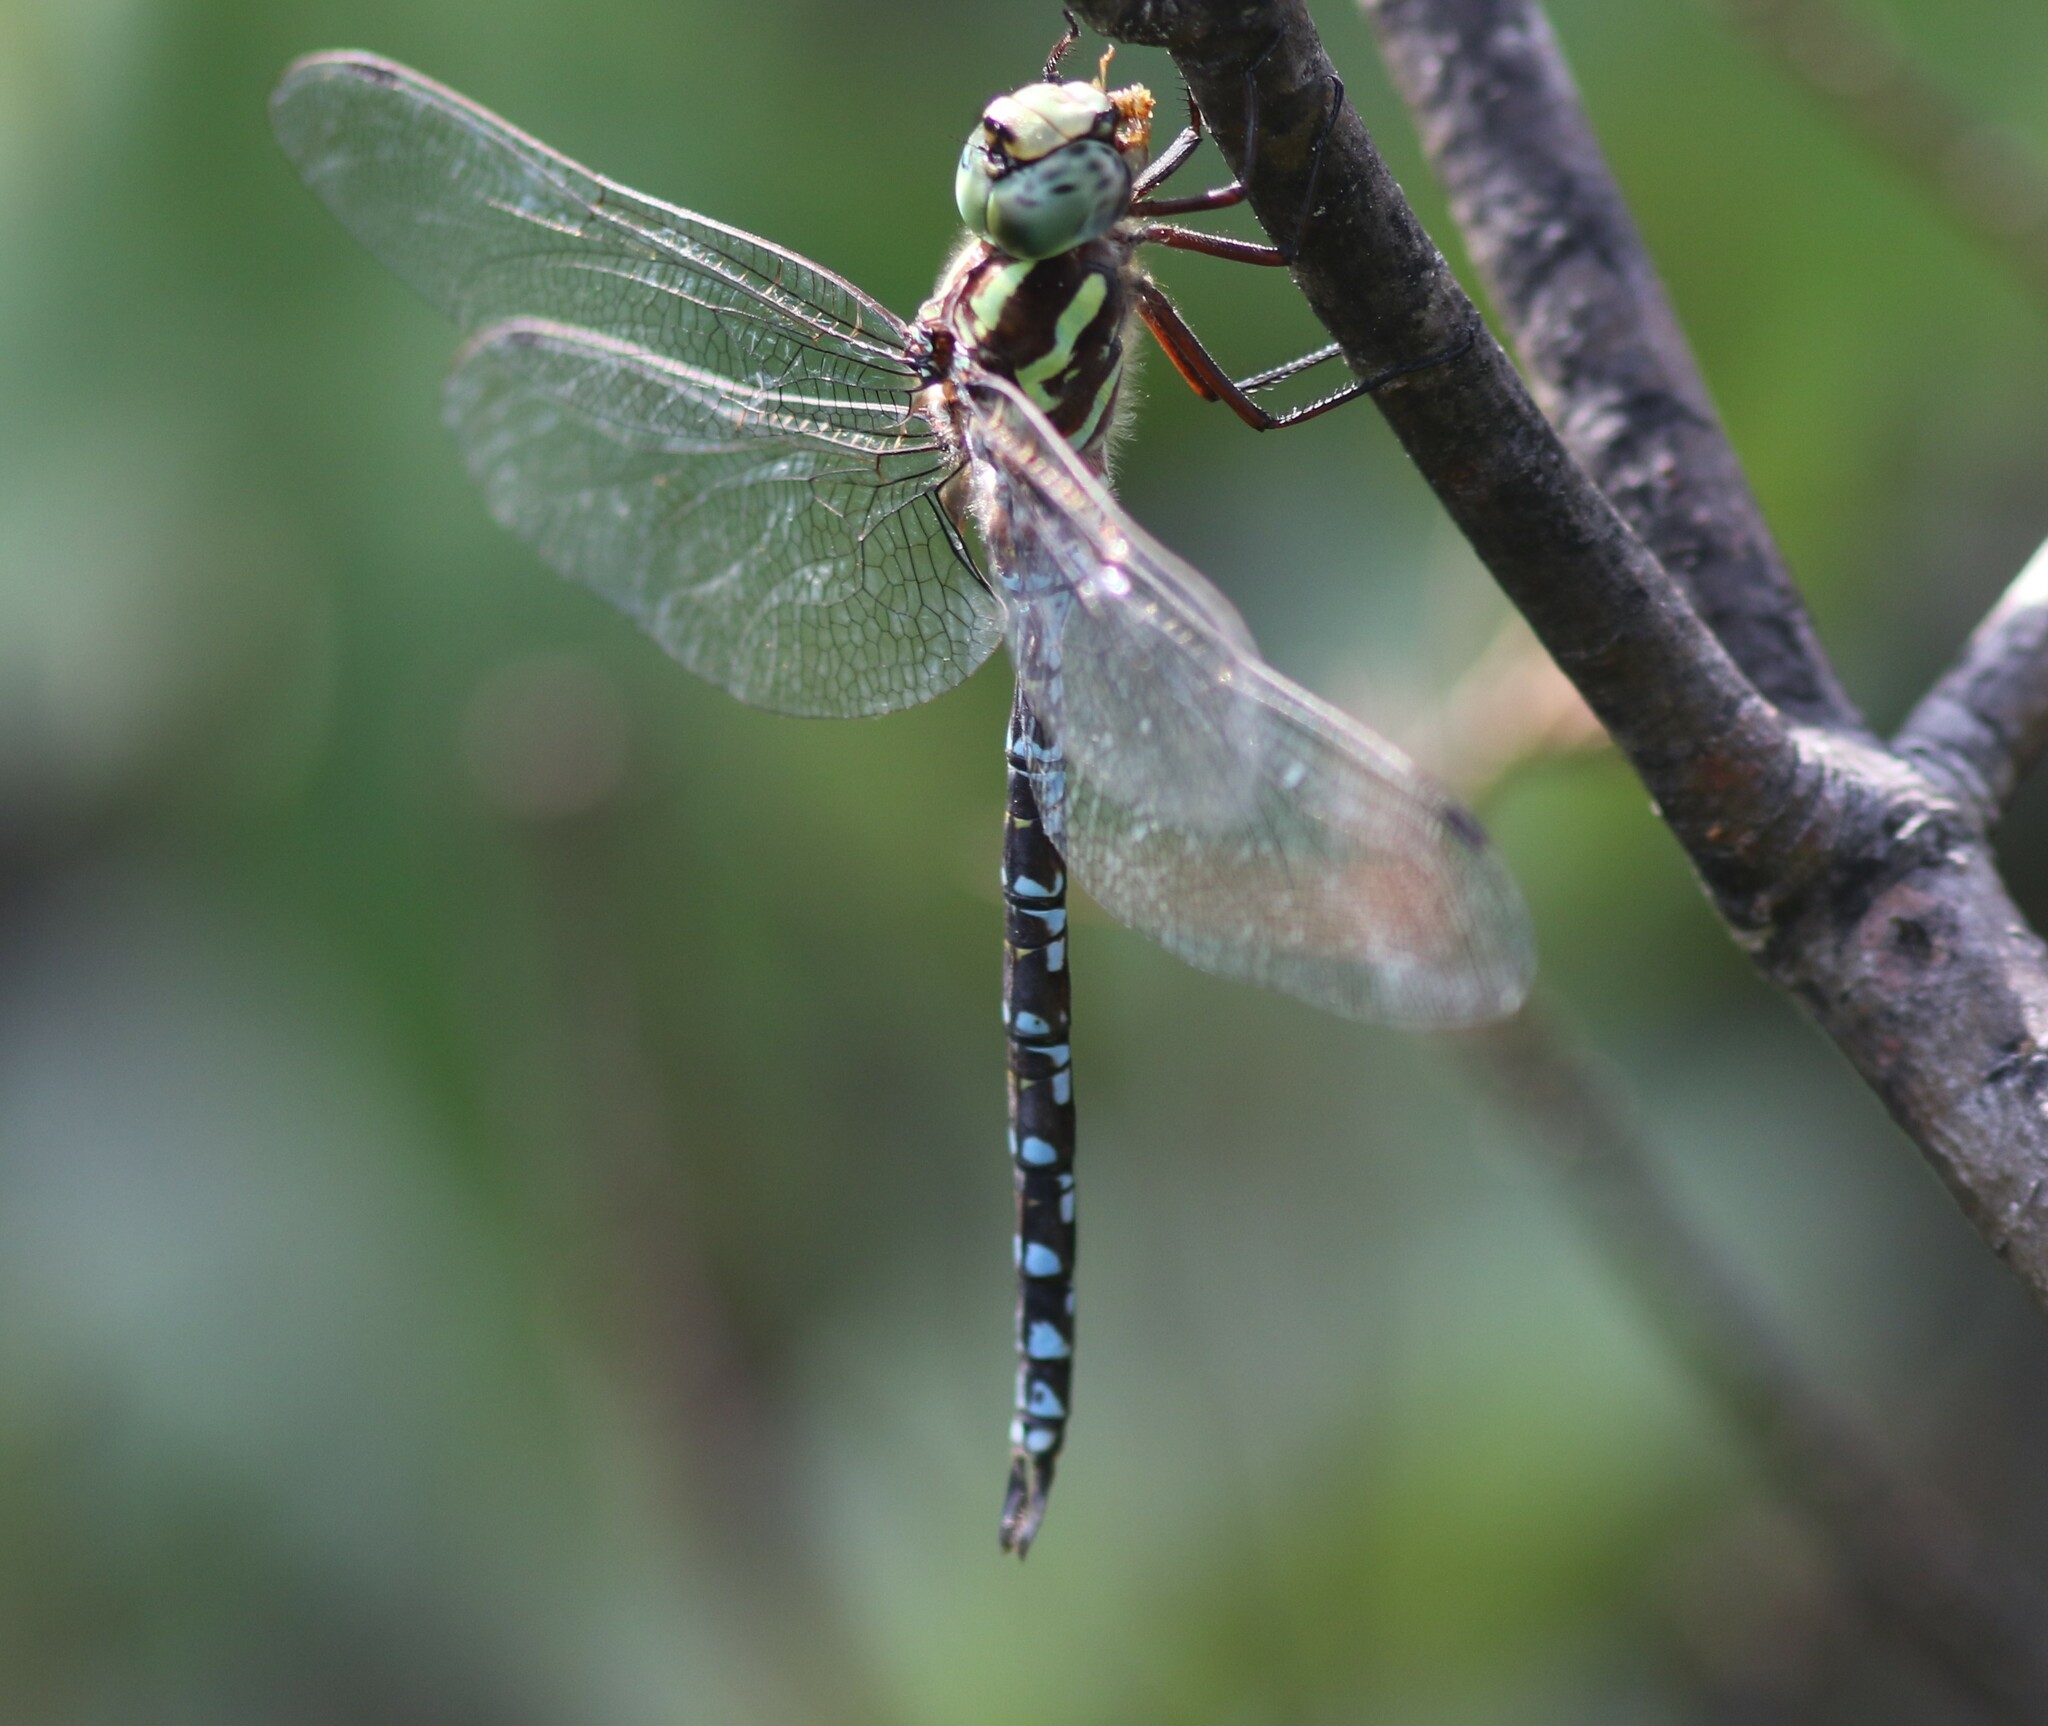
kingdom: Animalia
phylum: Arthropoda
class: Insecta
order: Odonata
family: Aeshnidae
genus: Aeshna
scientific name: Aeshna verticalis
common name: Green-striped darner
